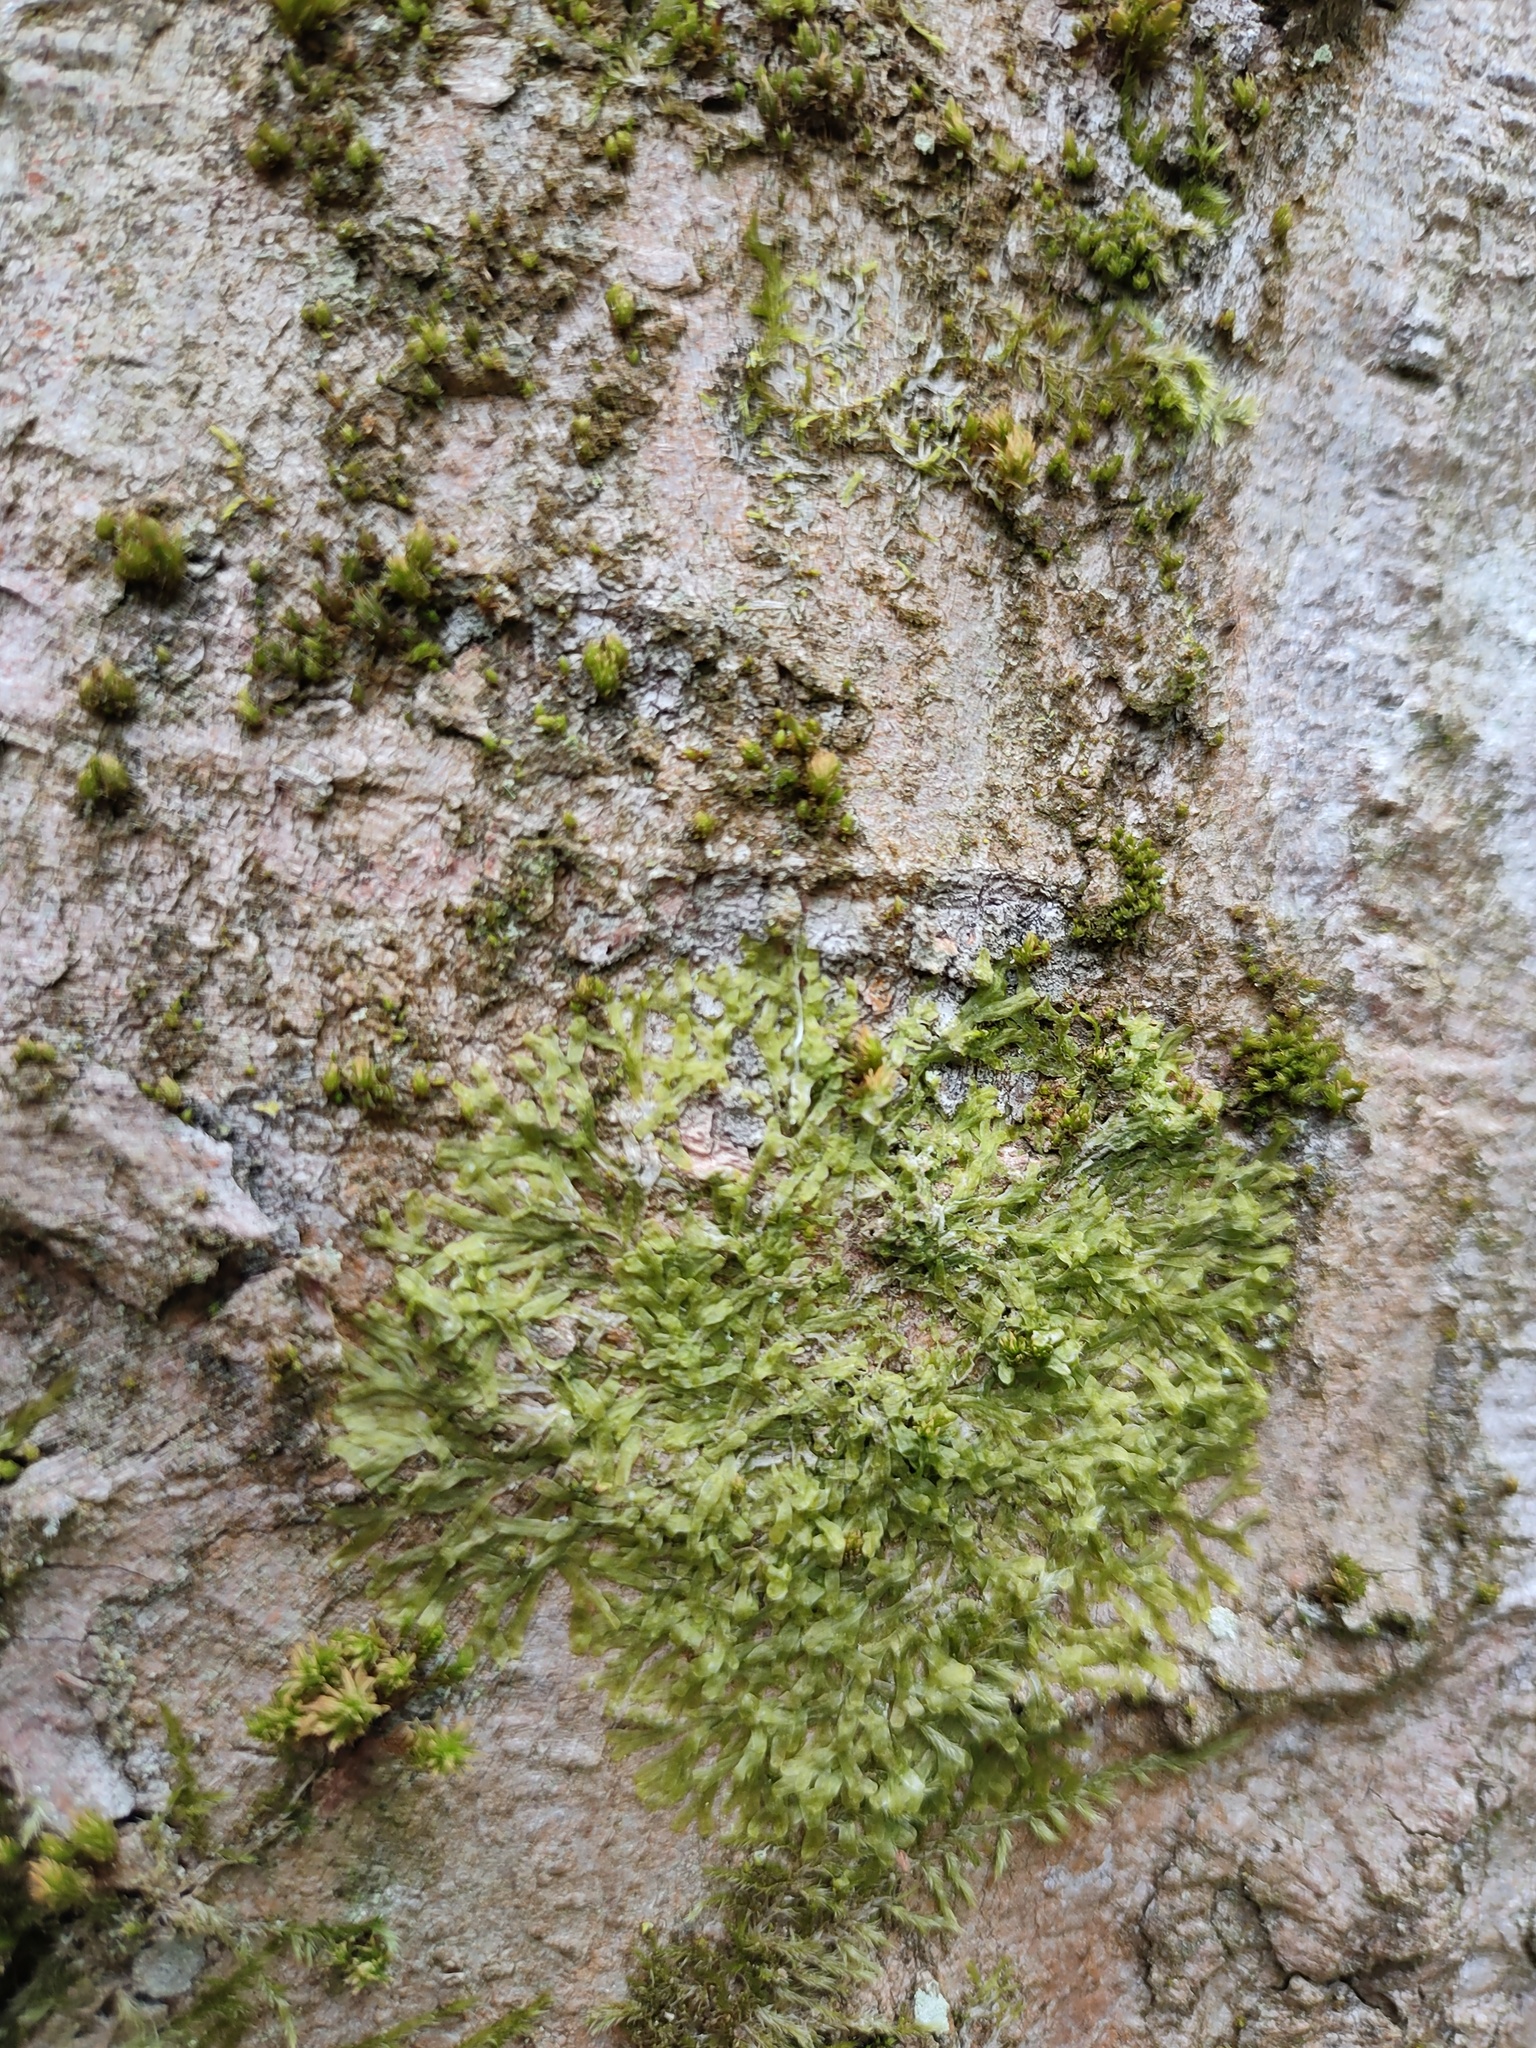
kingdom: Plantae
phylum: Marchantiophyta
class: Jungermanniopsida
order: Metzgeriales
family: Metzgeriaceae
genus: Metzgeria
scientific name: Metzgeria furcata
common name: Forked veilwort
